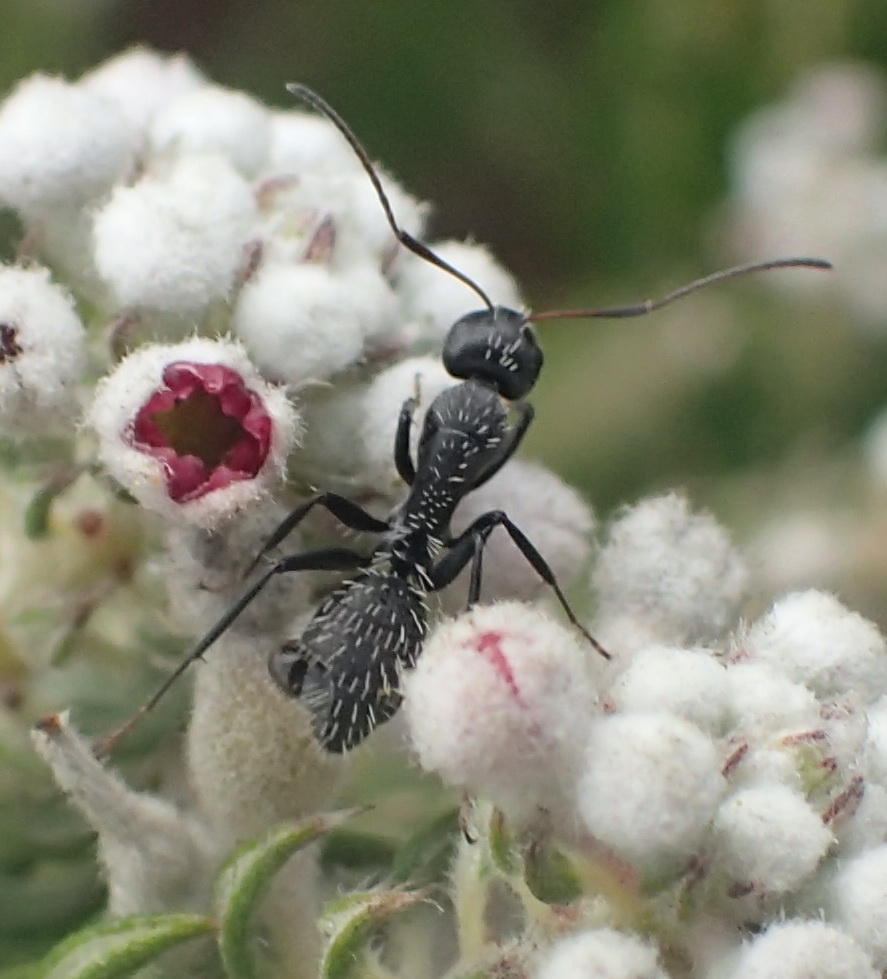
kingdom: Animalia
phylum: Arthropoda
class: Insecta
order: Hymenoptera
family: Formicidae
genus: Camponotus
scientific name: Camponotus niveosetosus
